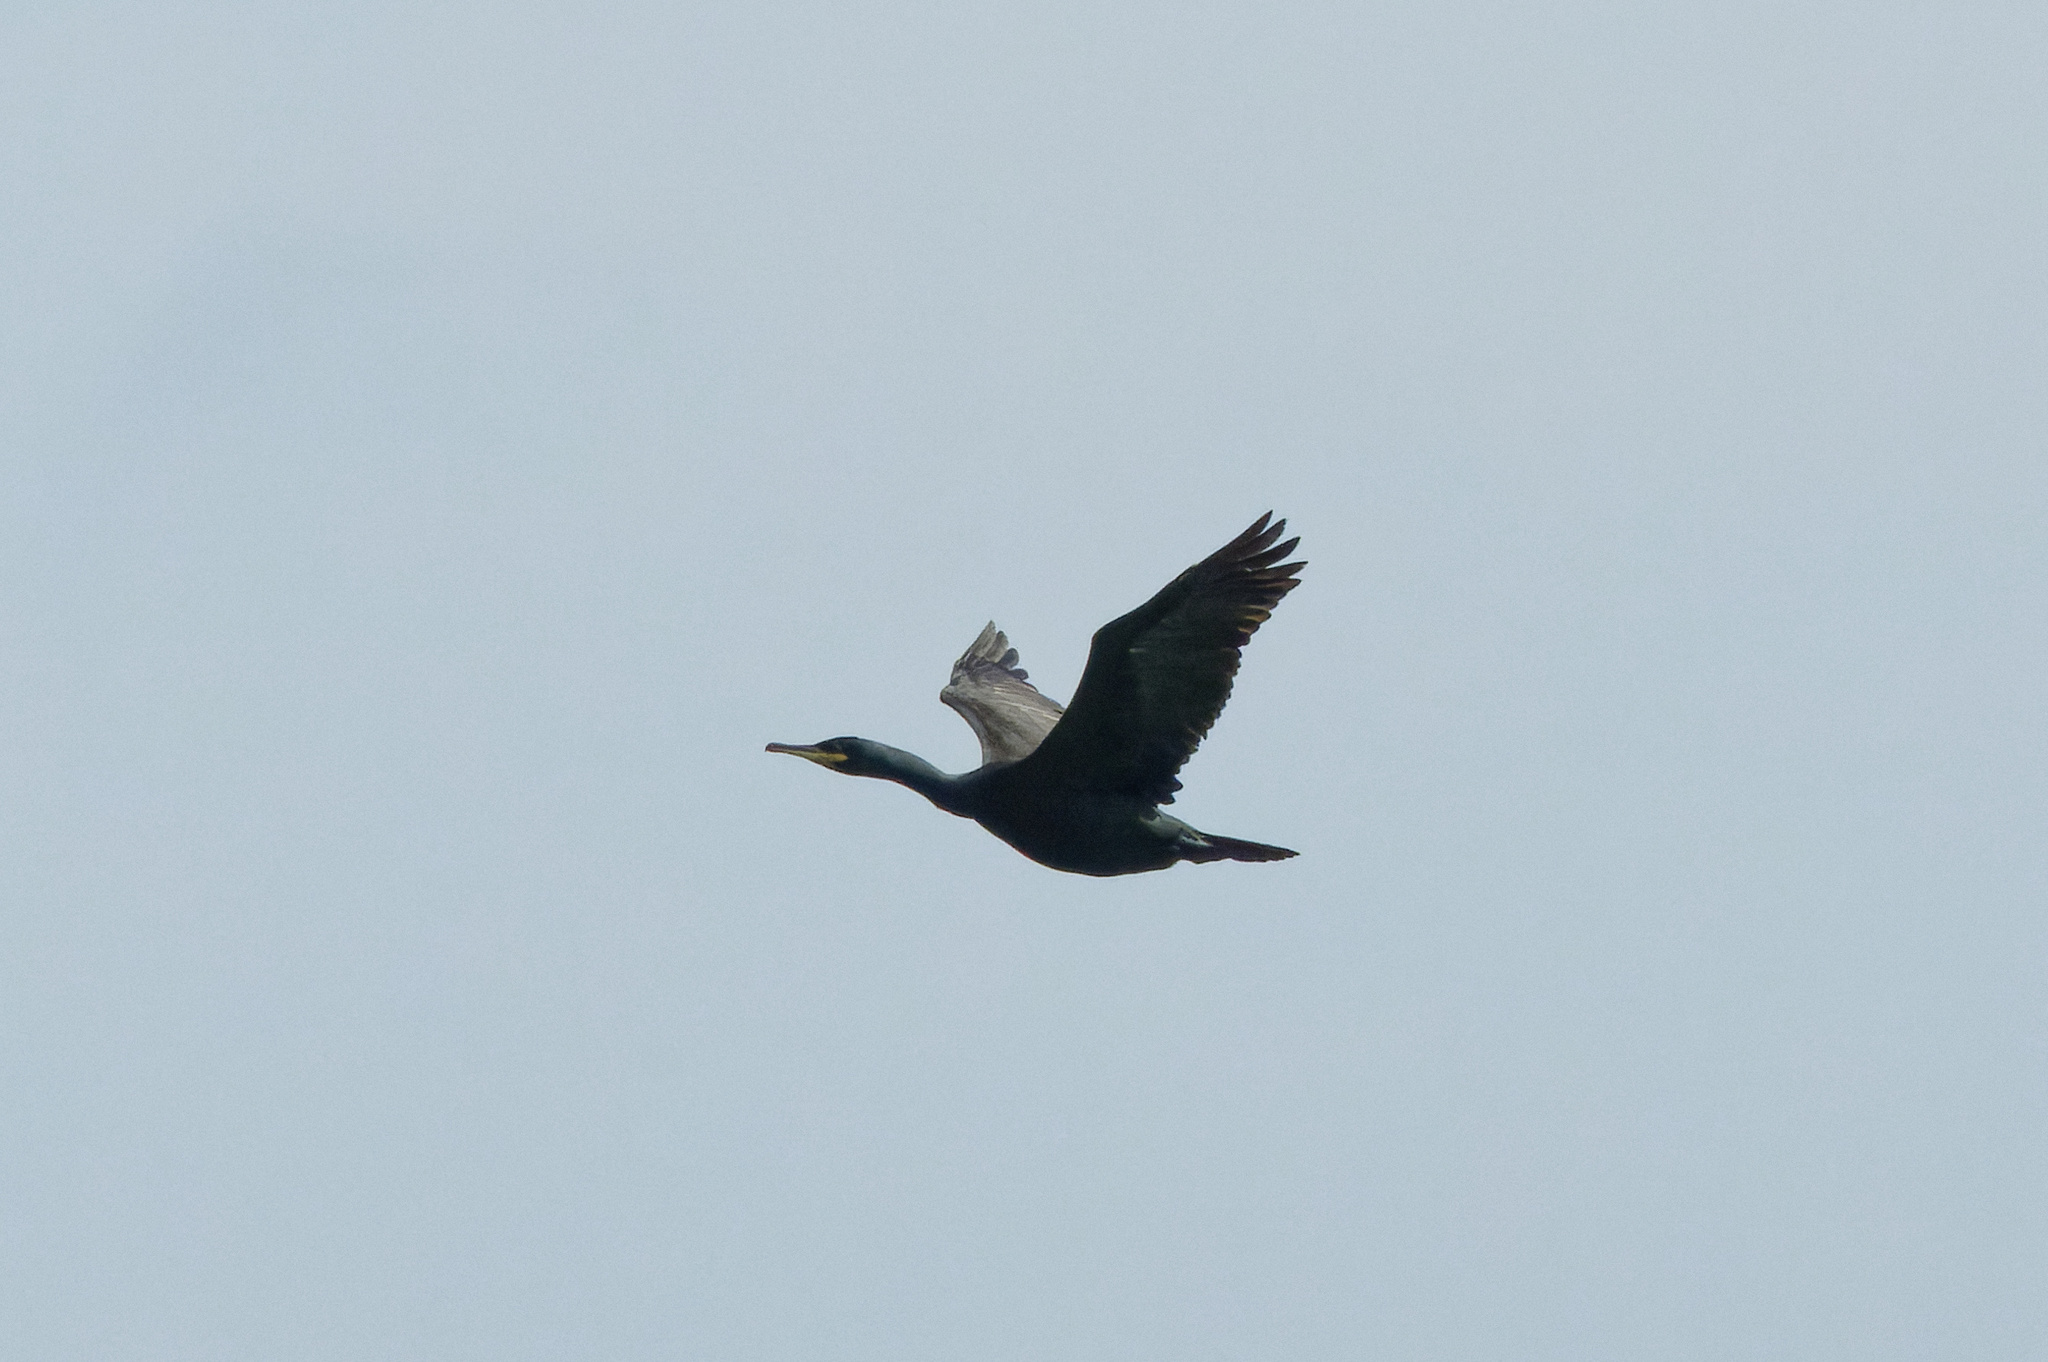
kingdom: Animalia
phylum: Chordata
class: Aves
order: Suliformes
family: Phalacrocoracidae
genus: Phalacrocorax
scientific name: Phalacrocorax aristotelis
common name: European shag
